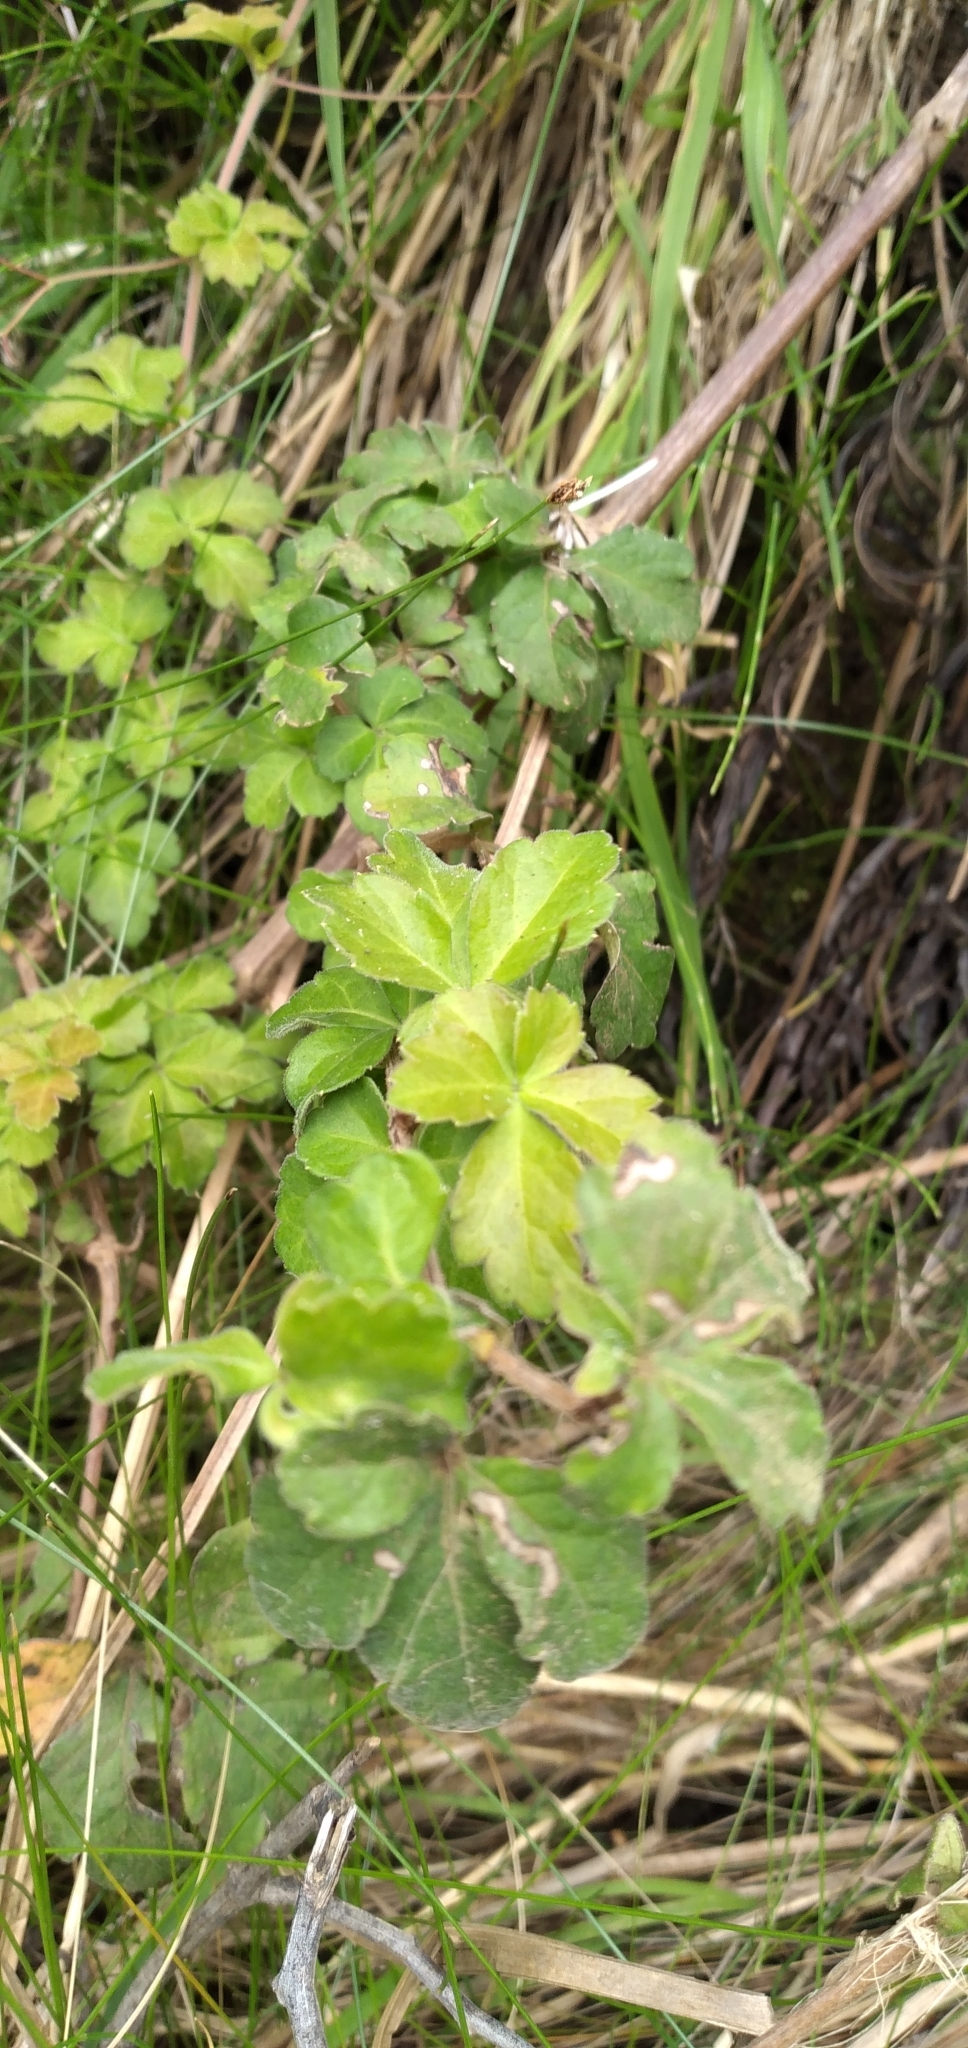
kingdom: Plantae
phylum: Tracheophyta
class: Magnoliopsida
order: Vitales
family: Vitaceae
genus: Clematicissus
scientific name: Clematicissus striata
